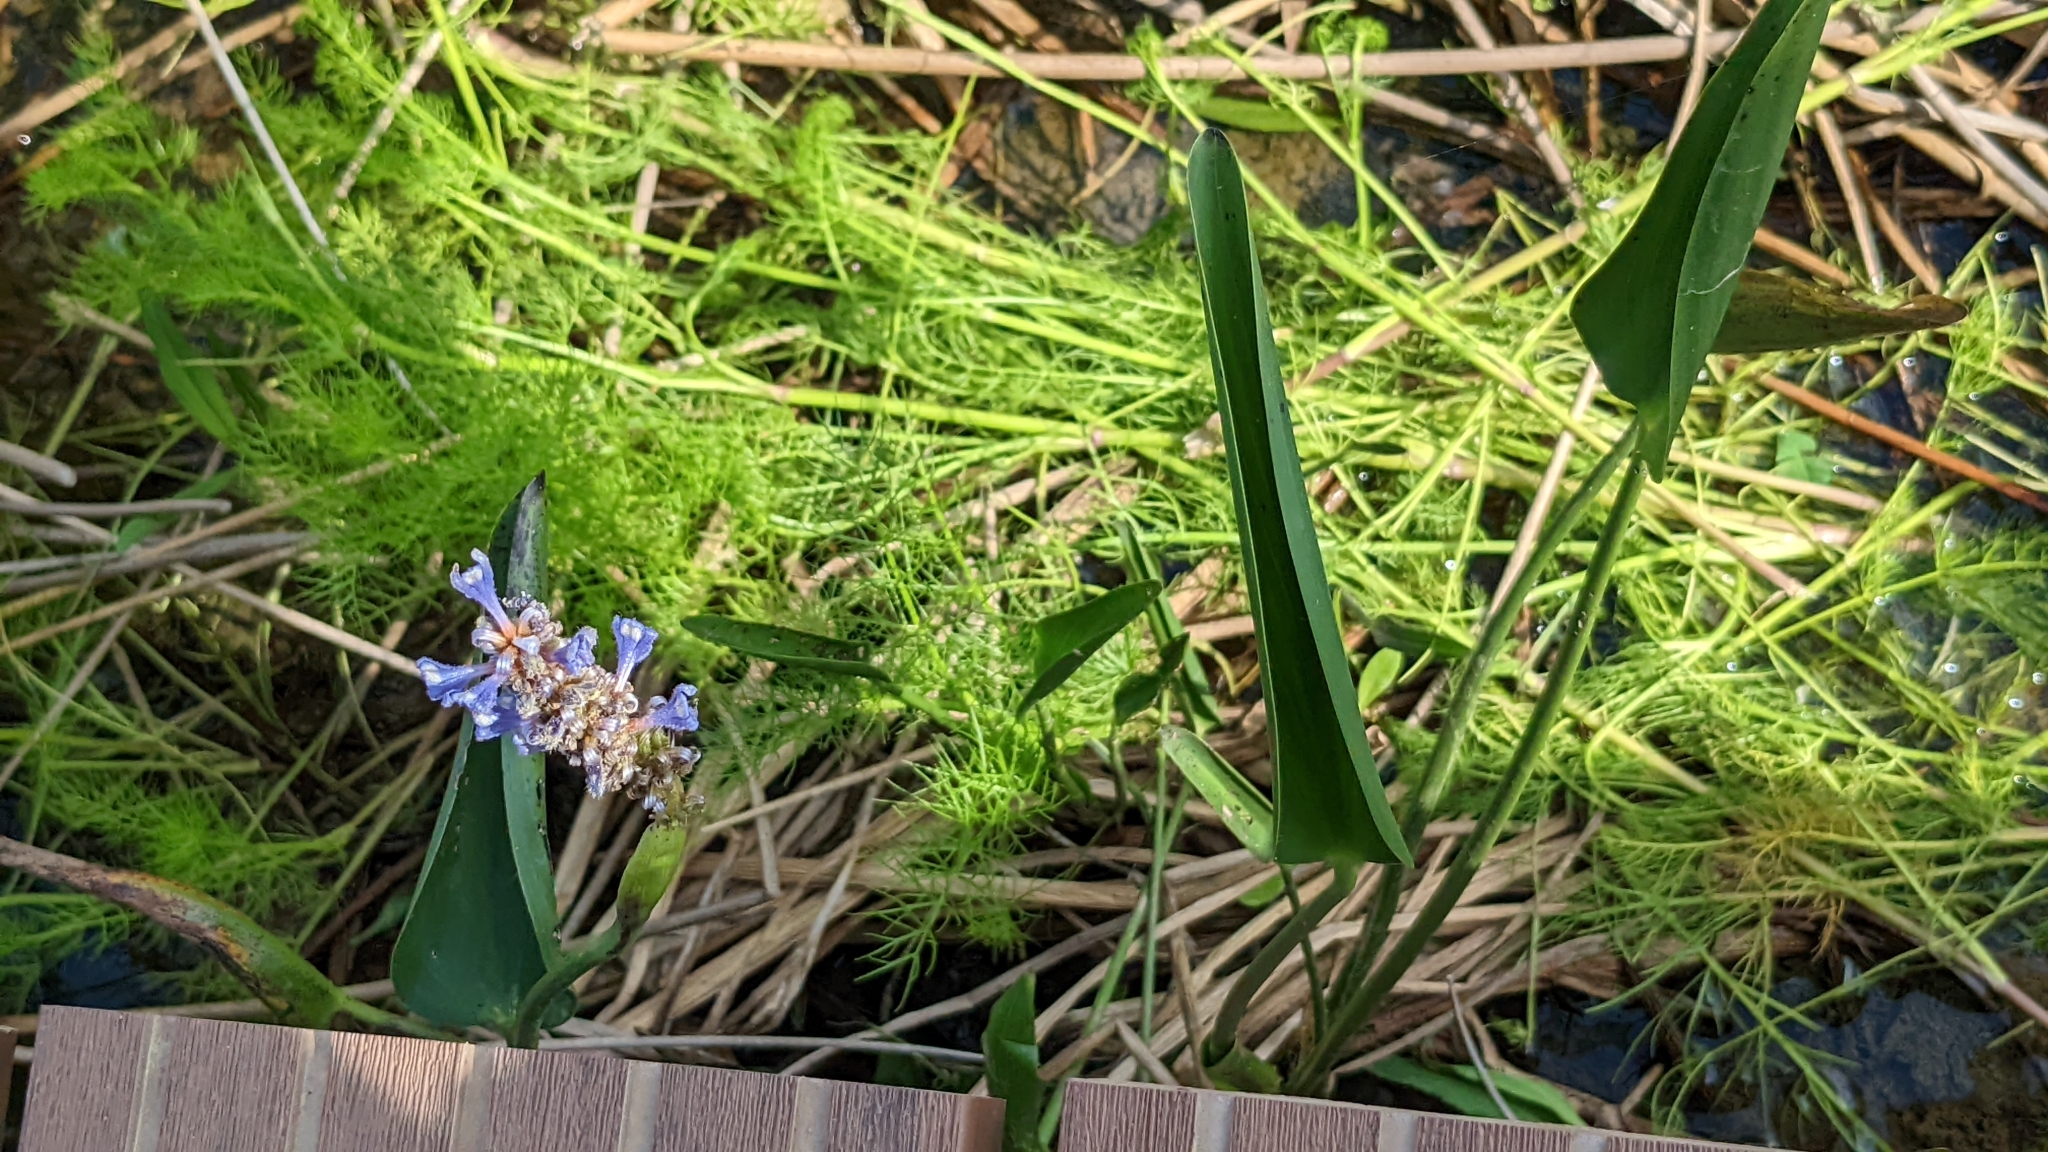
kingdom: Plantae
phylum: Tracheophyta
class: Liliopsida
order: Commelinales
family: Pontederiaceae
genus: Pontederia
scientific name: Pontederia cordata
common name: Pickerelweed
